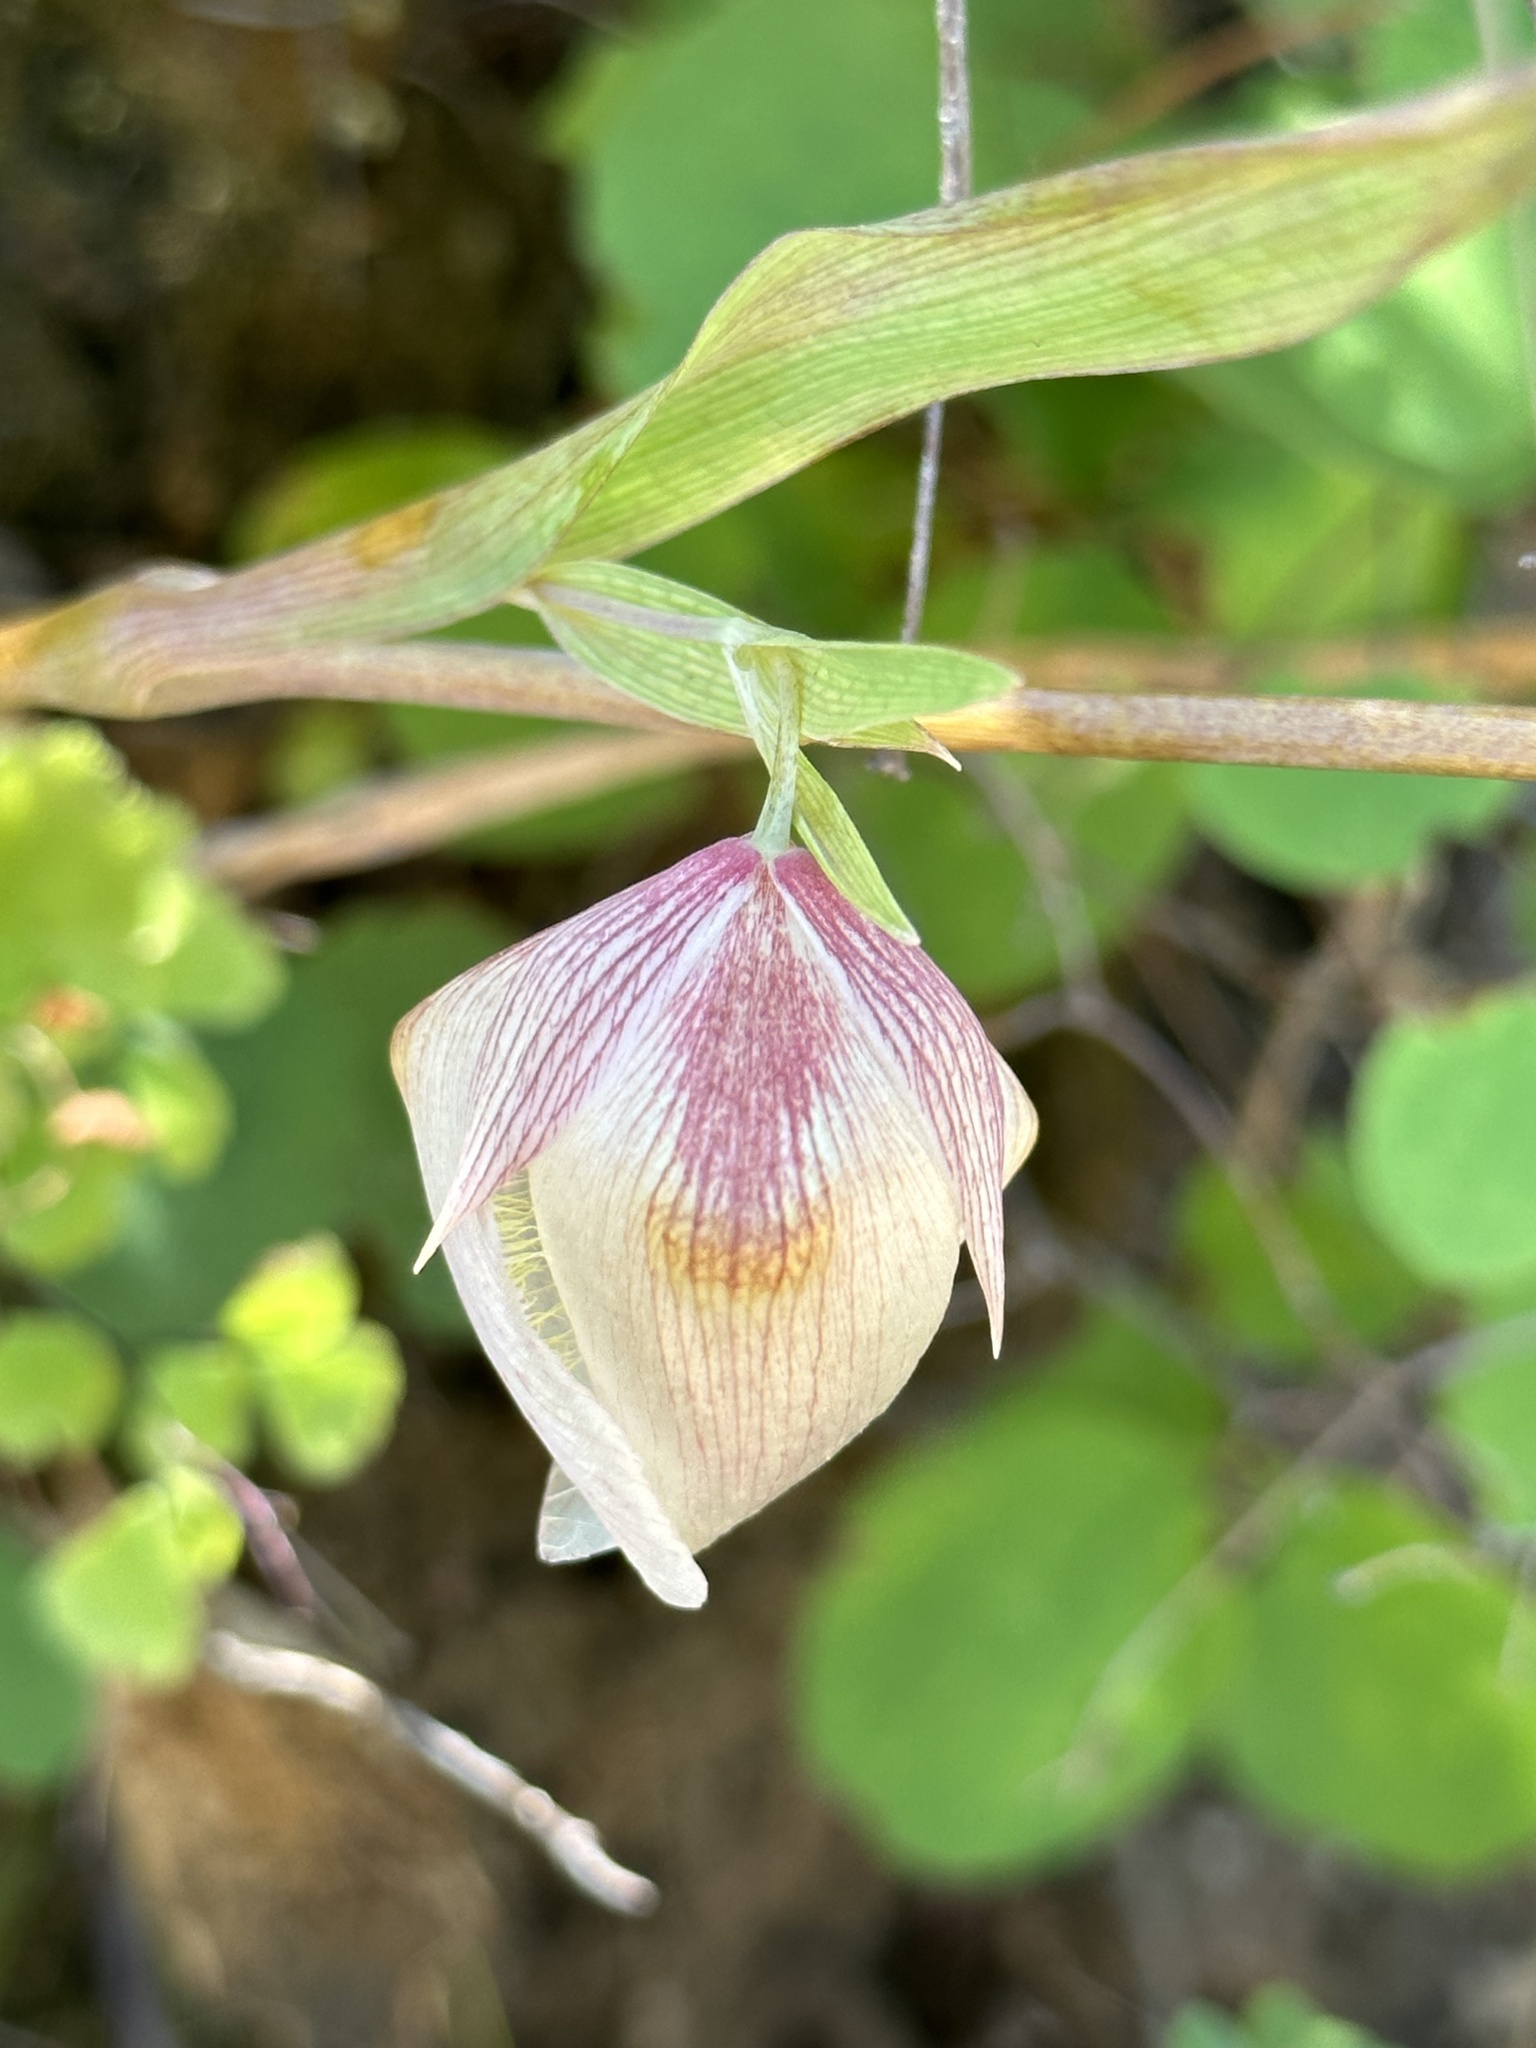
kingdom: Plantae
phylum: Tracheophyta
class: Liliopsida
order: Liliales
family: Liliaceae
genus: Calochortus
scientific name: Calochortus albus
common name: Fairy-lantern
